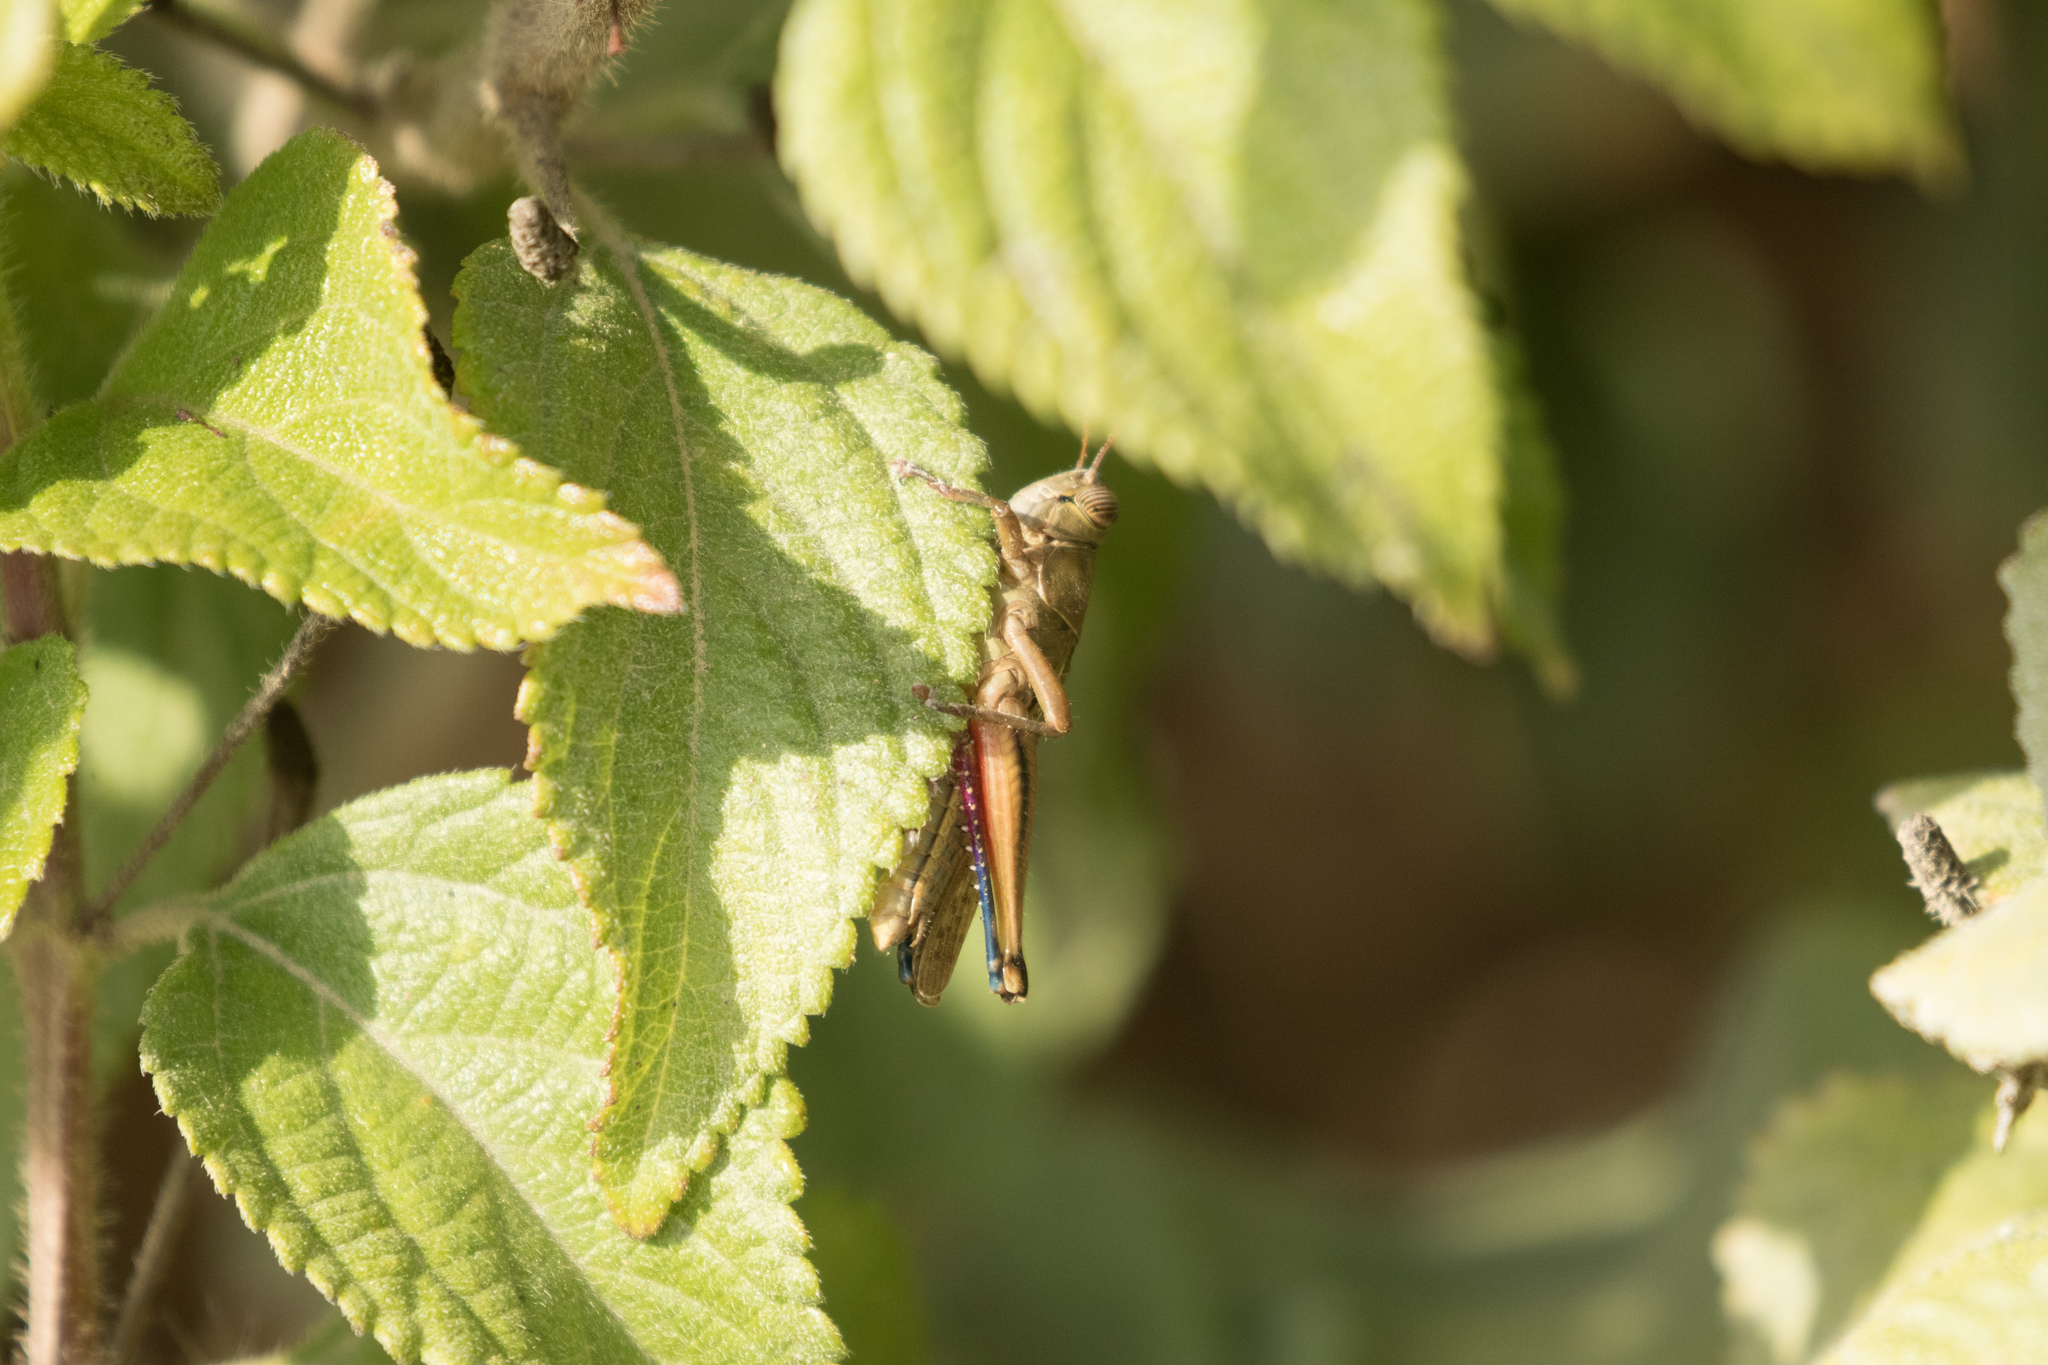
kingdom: Animalia
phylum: Arthropoda
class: Insecta
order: Orthoptera
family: Acrididae
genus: Eyprepocnemis
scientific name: Eyprepocnemis plorans
